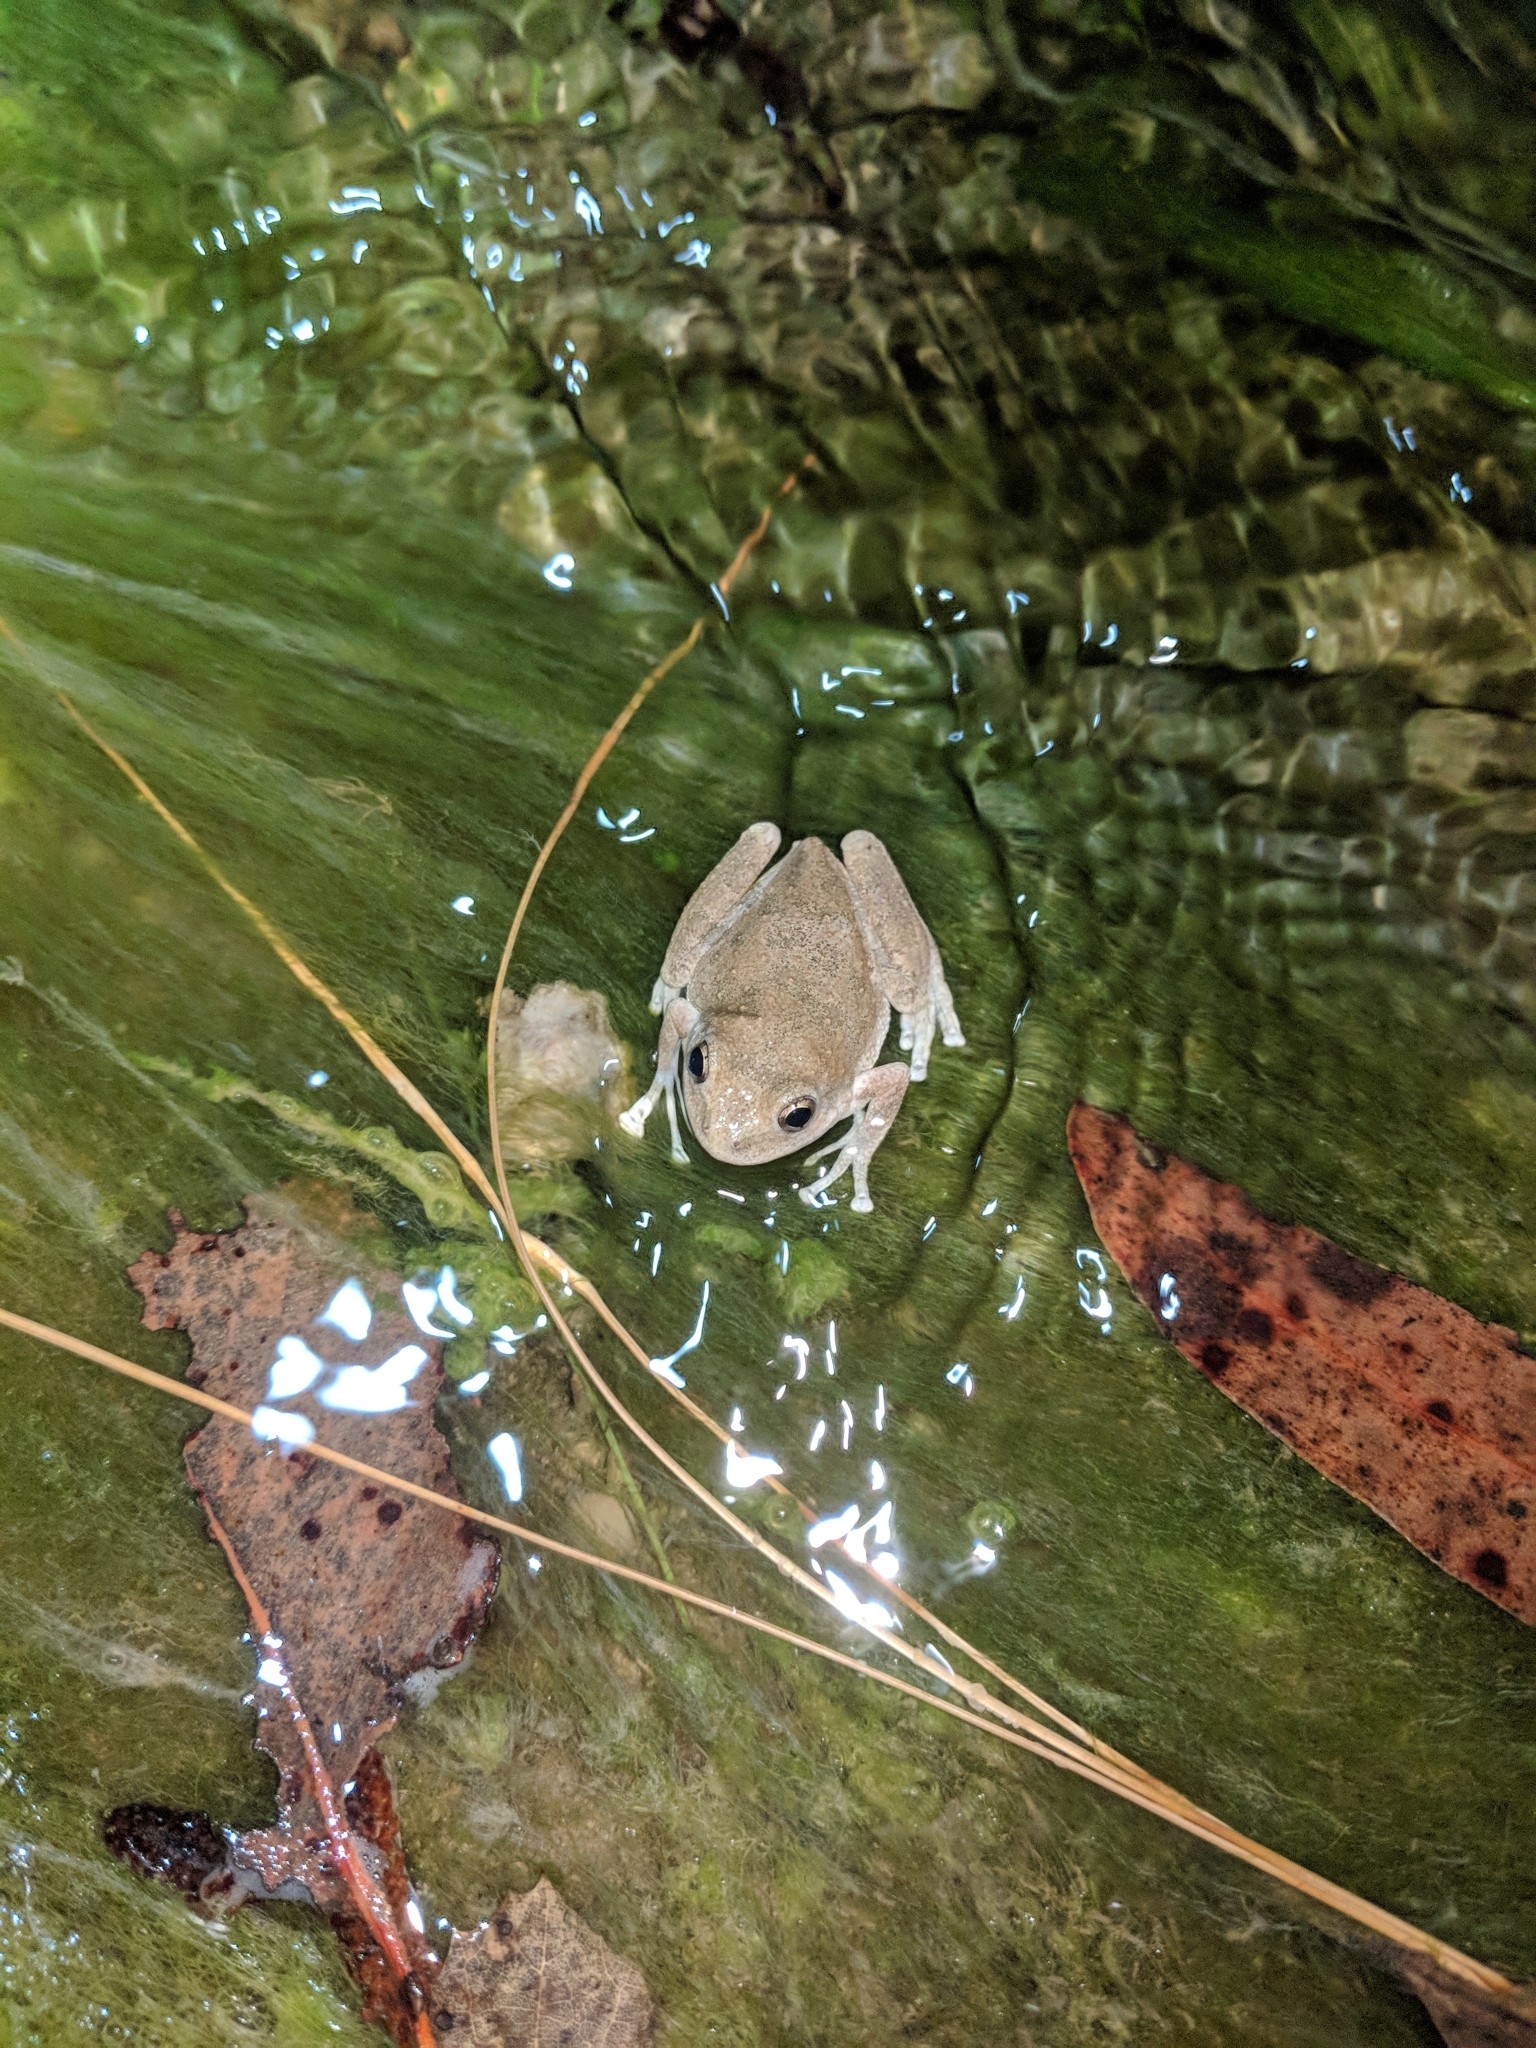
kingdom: Animalia
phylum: Chordata
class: Amphibia
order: Anura
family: Hylidae
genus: Pseudacris
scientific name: Pseudacris cadaverina
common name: California chorus frog
